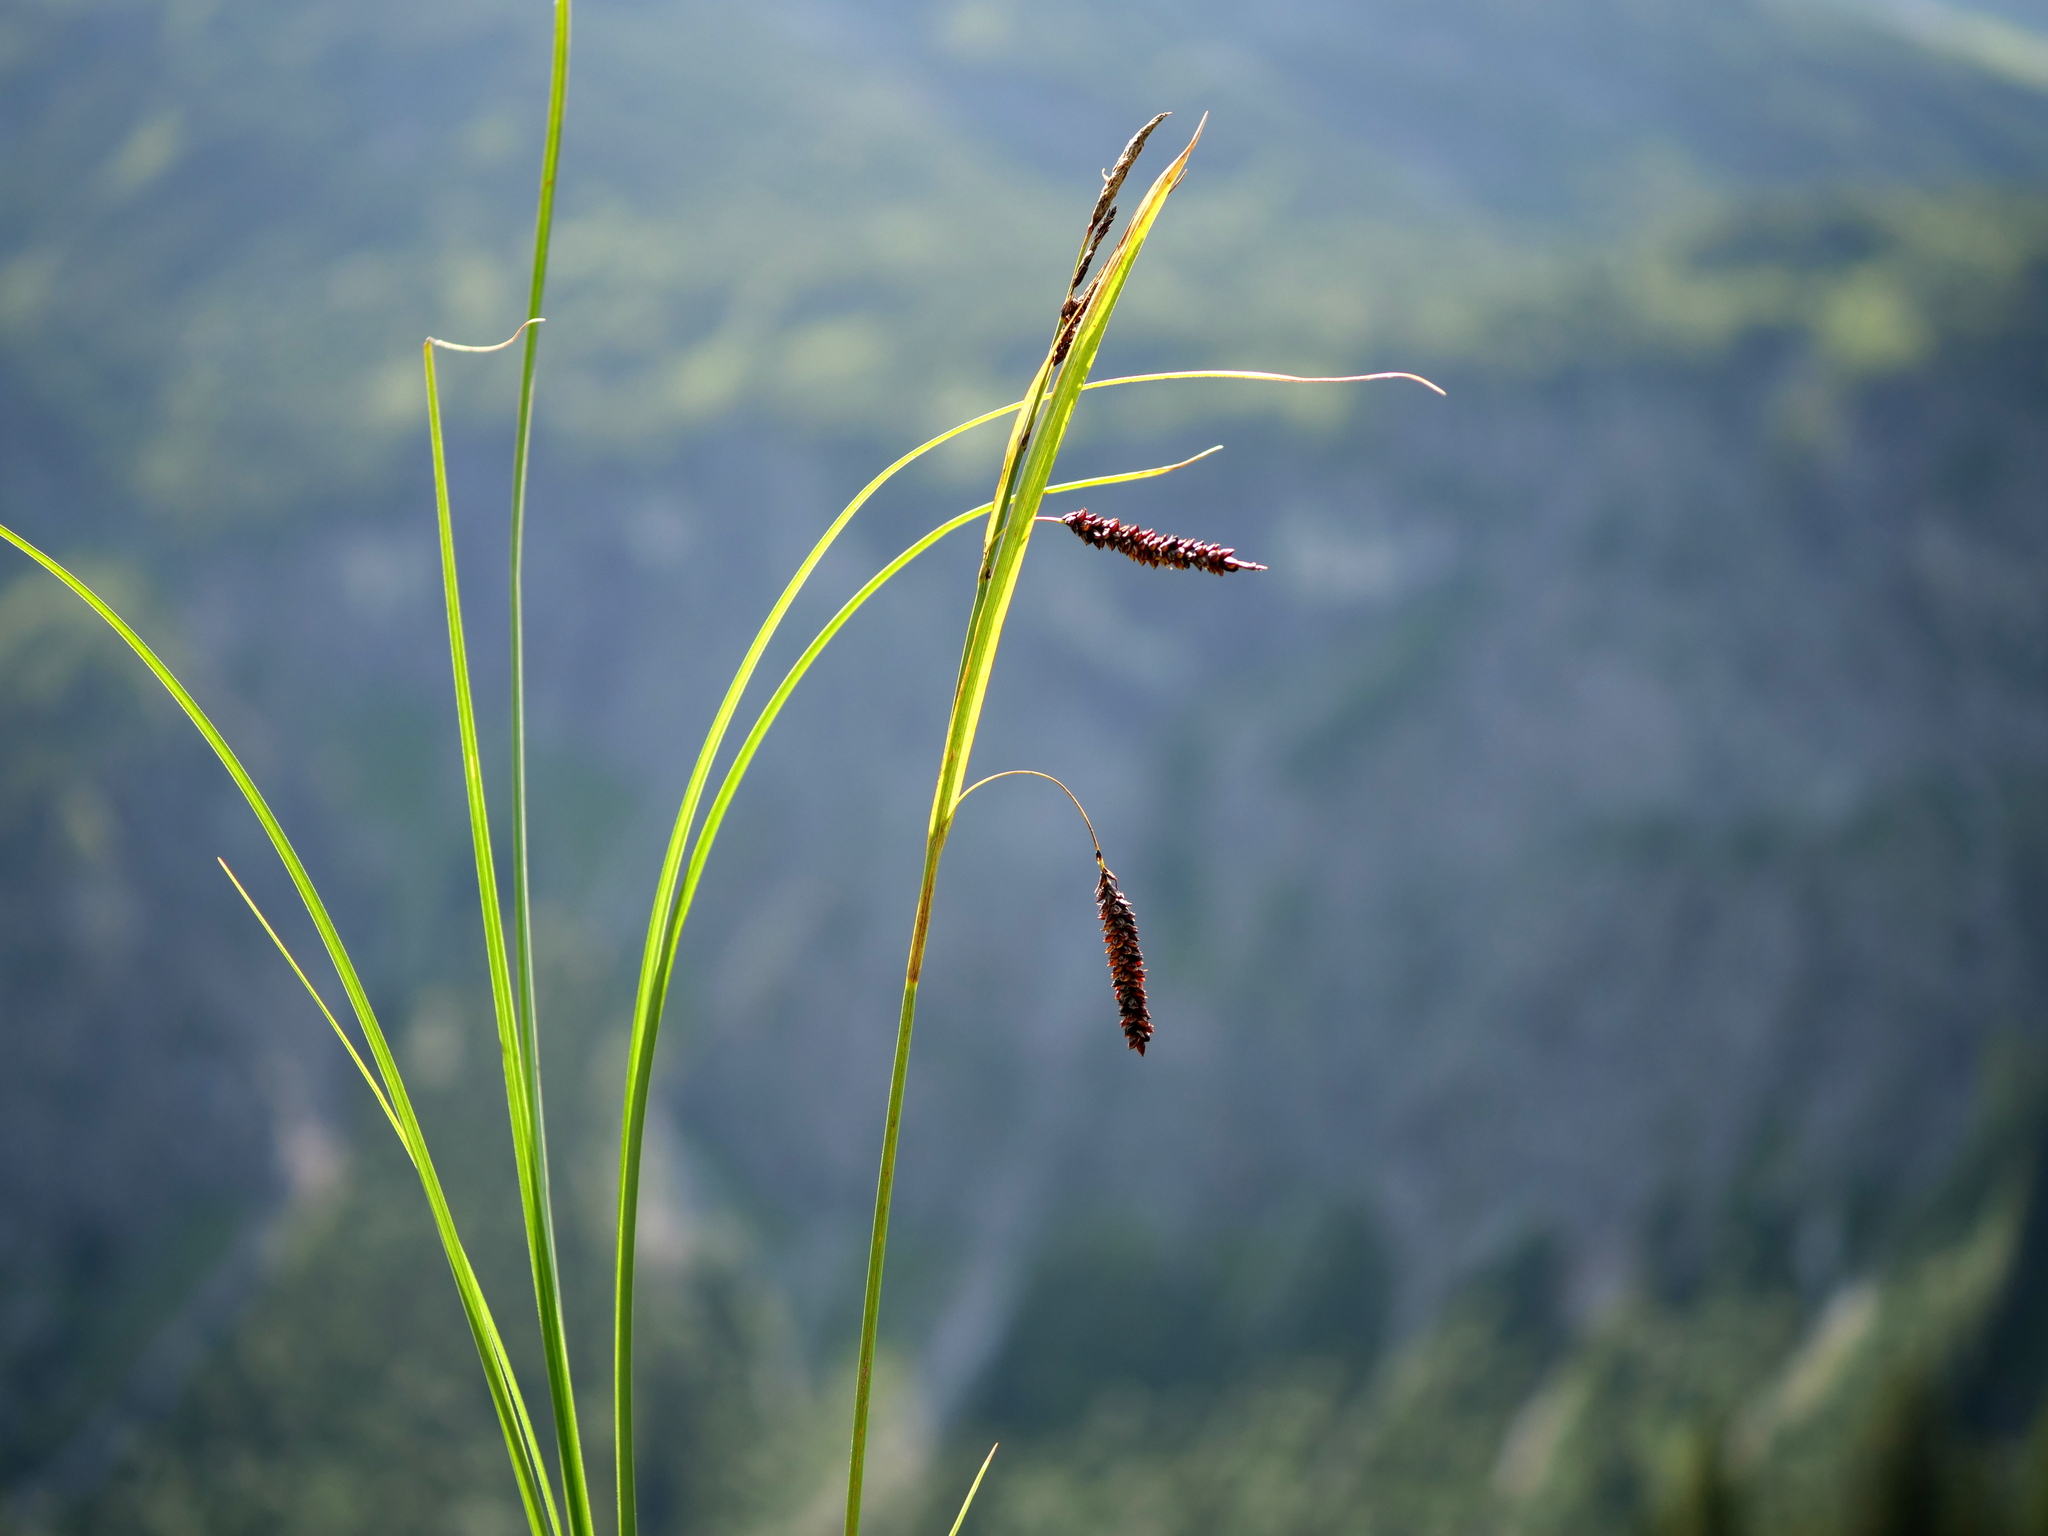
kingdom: Plantae
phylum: Tracheophyta
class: Liliopsida
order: Poales
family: Cyperaceae
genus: Carex
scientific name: Carex flacca
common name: Glaucous sedge
